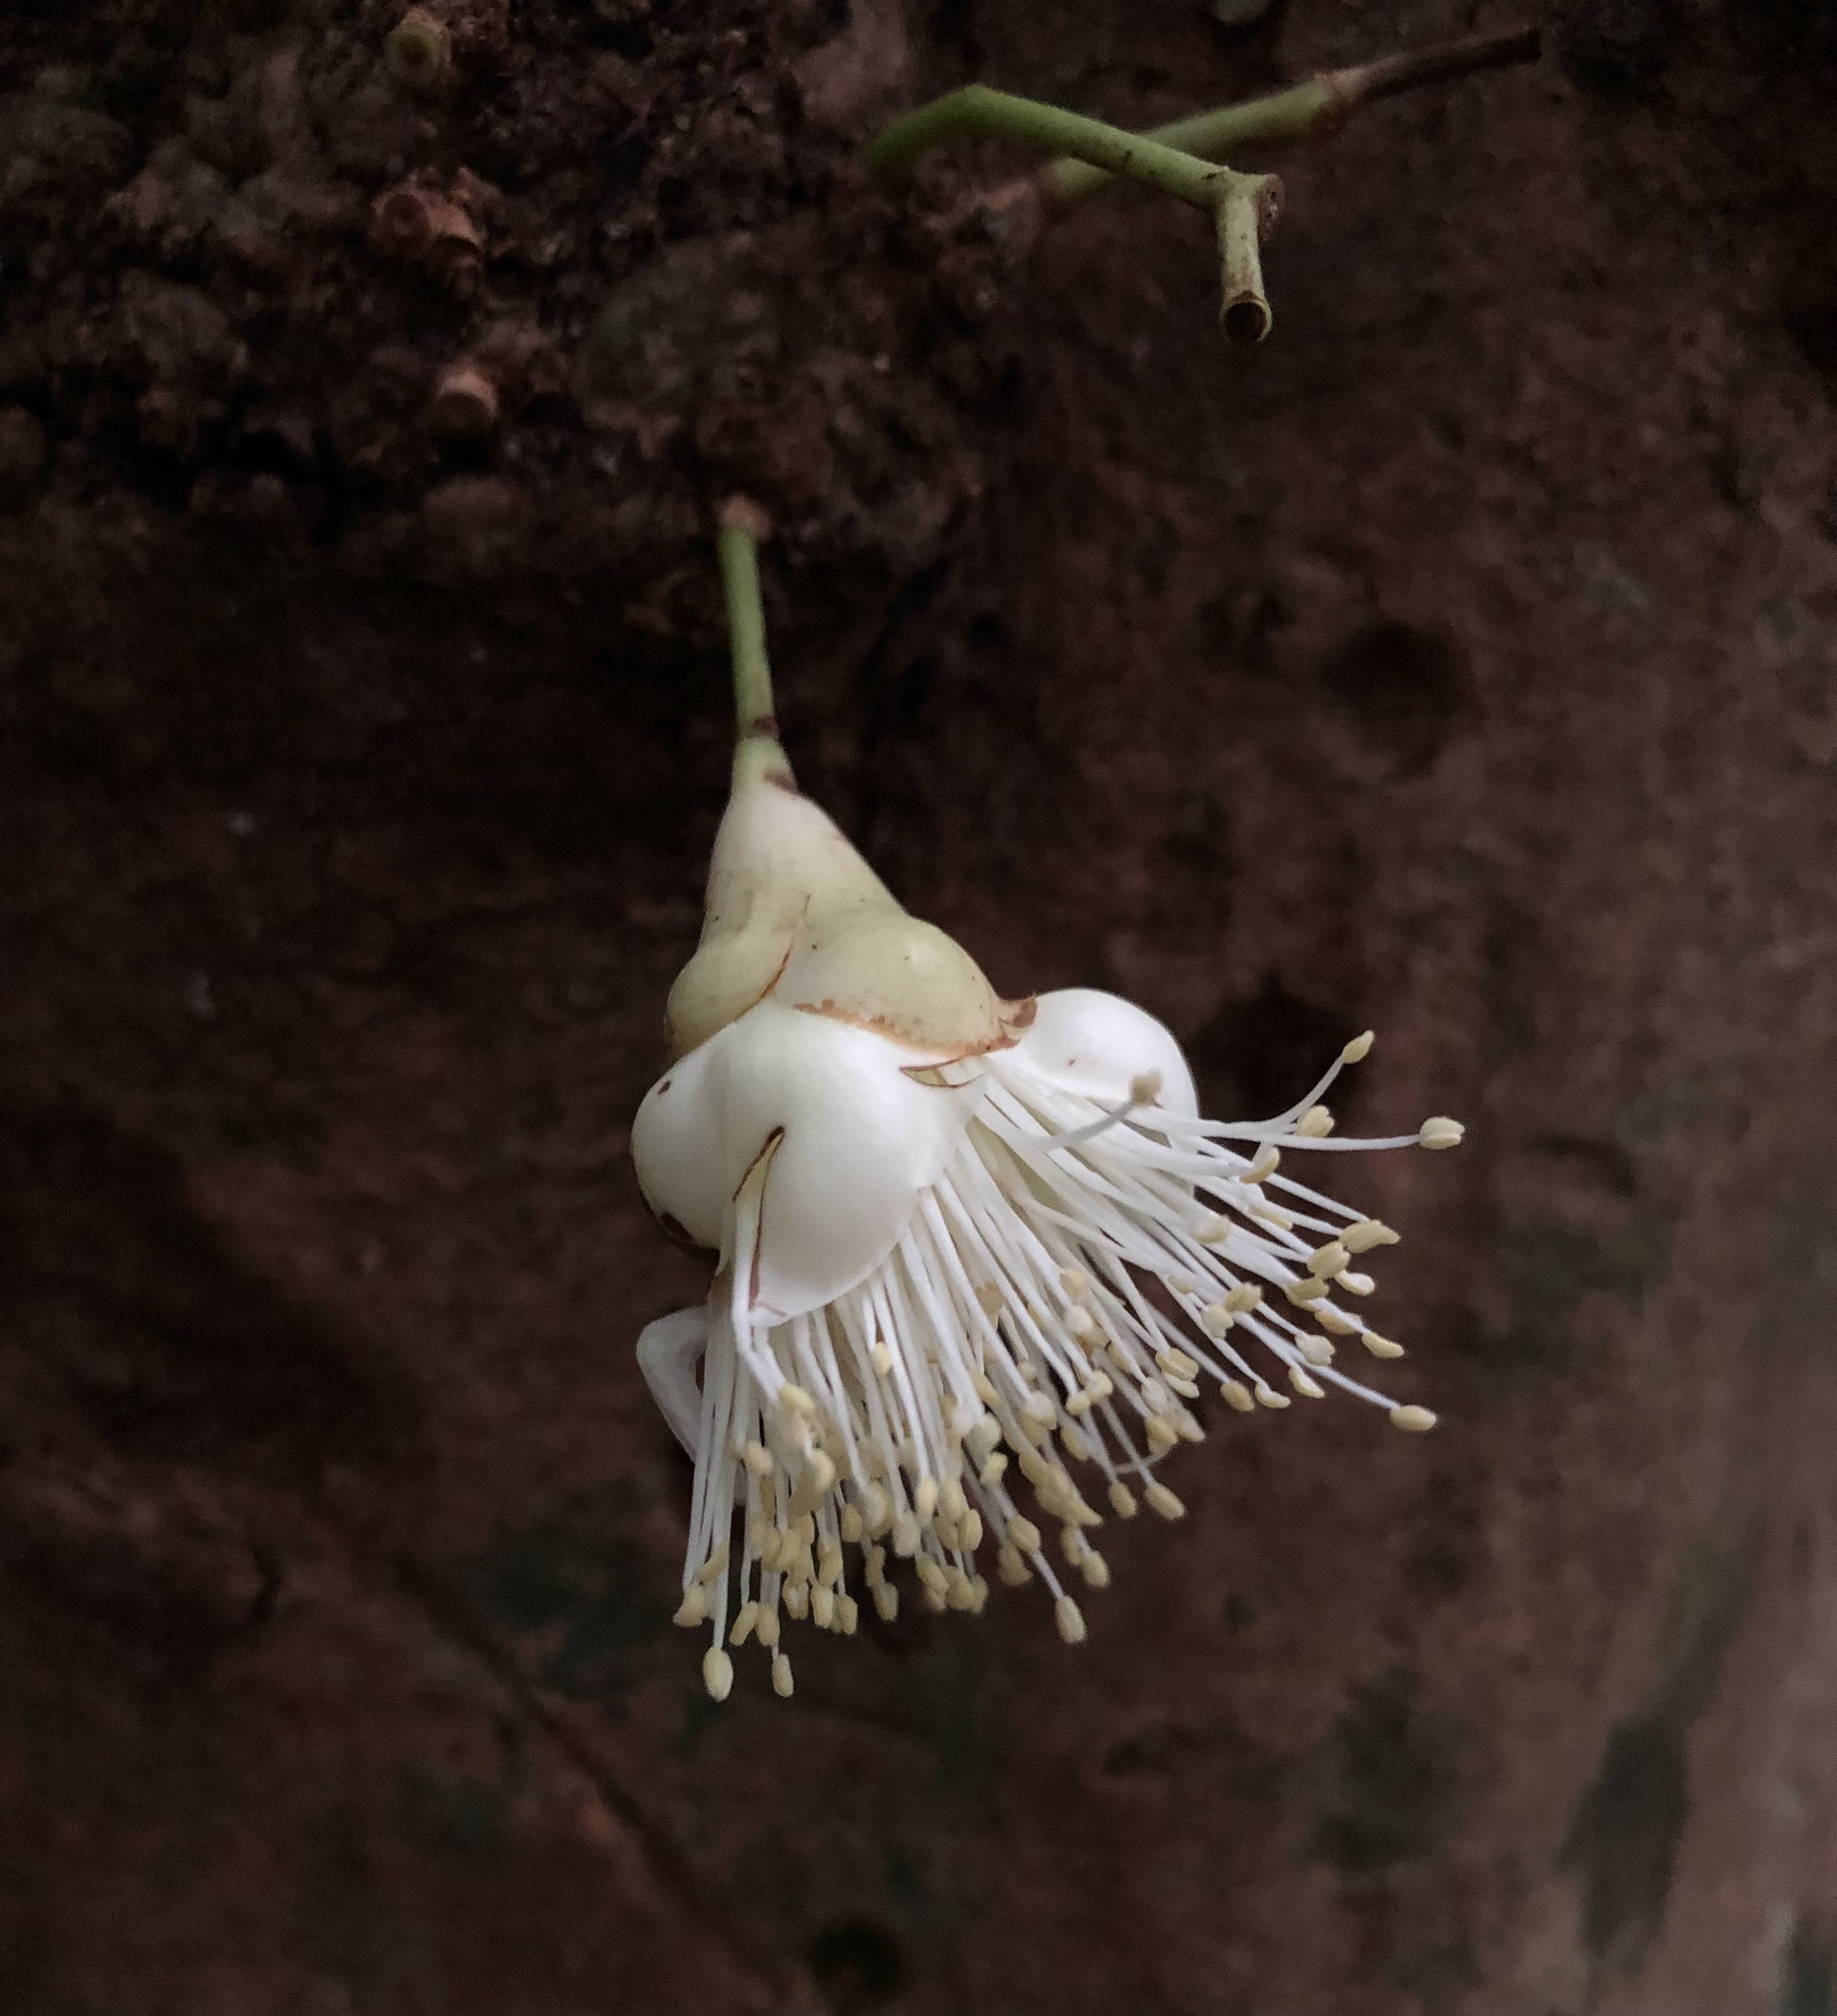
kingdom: Plantae
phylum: Tracheophyta
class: Magnoliopsida
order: Myrtales
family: Myrtaceae
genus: Syzygium
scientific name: Syzygium cormiflorum
